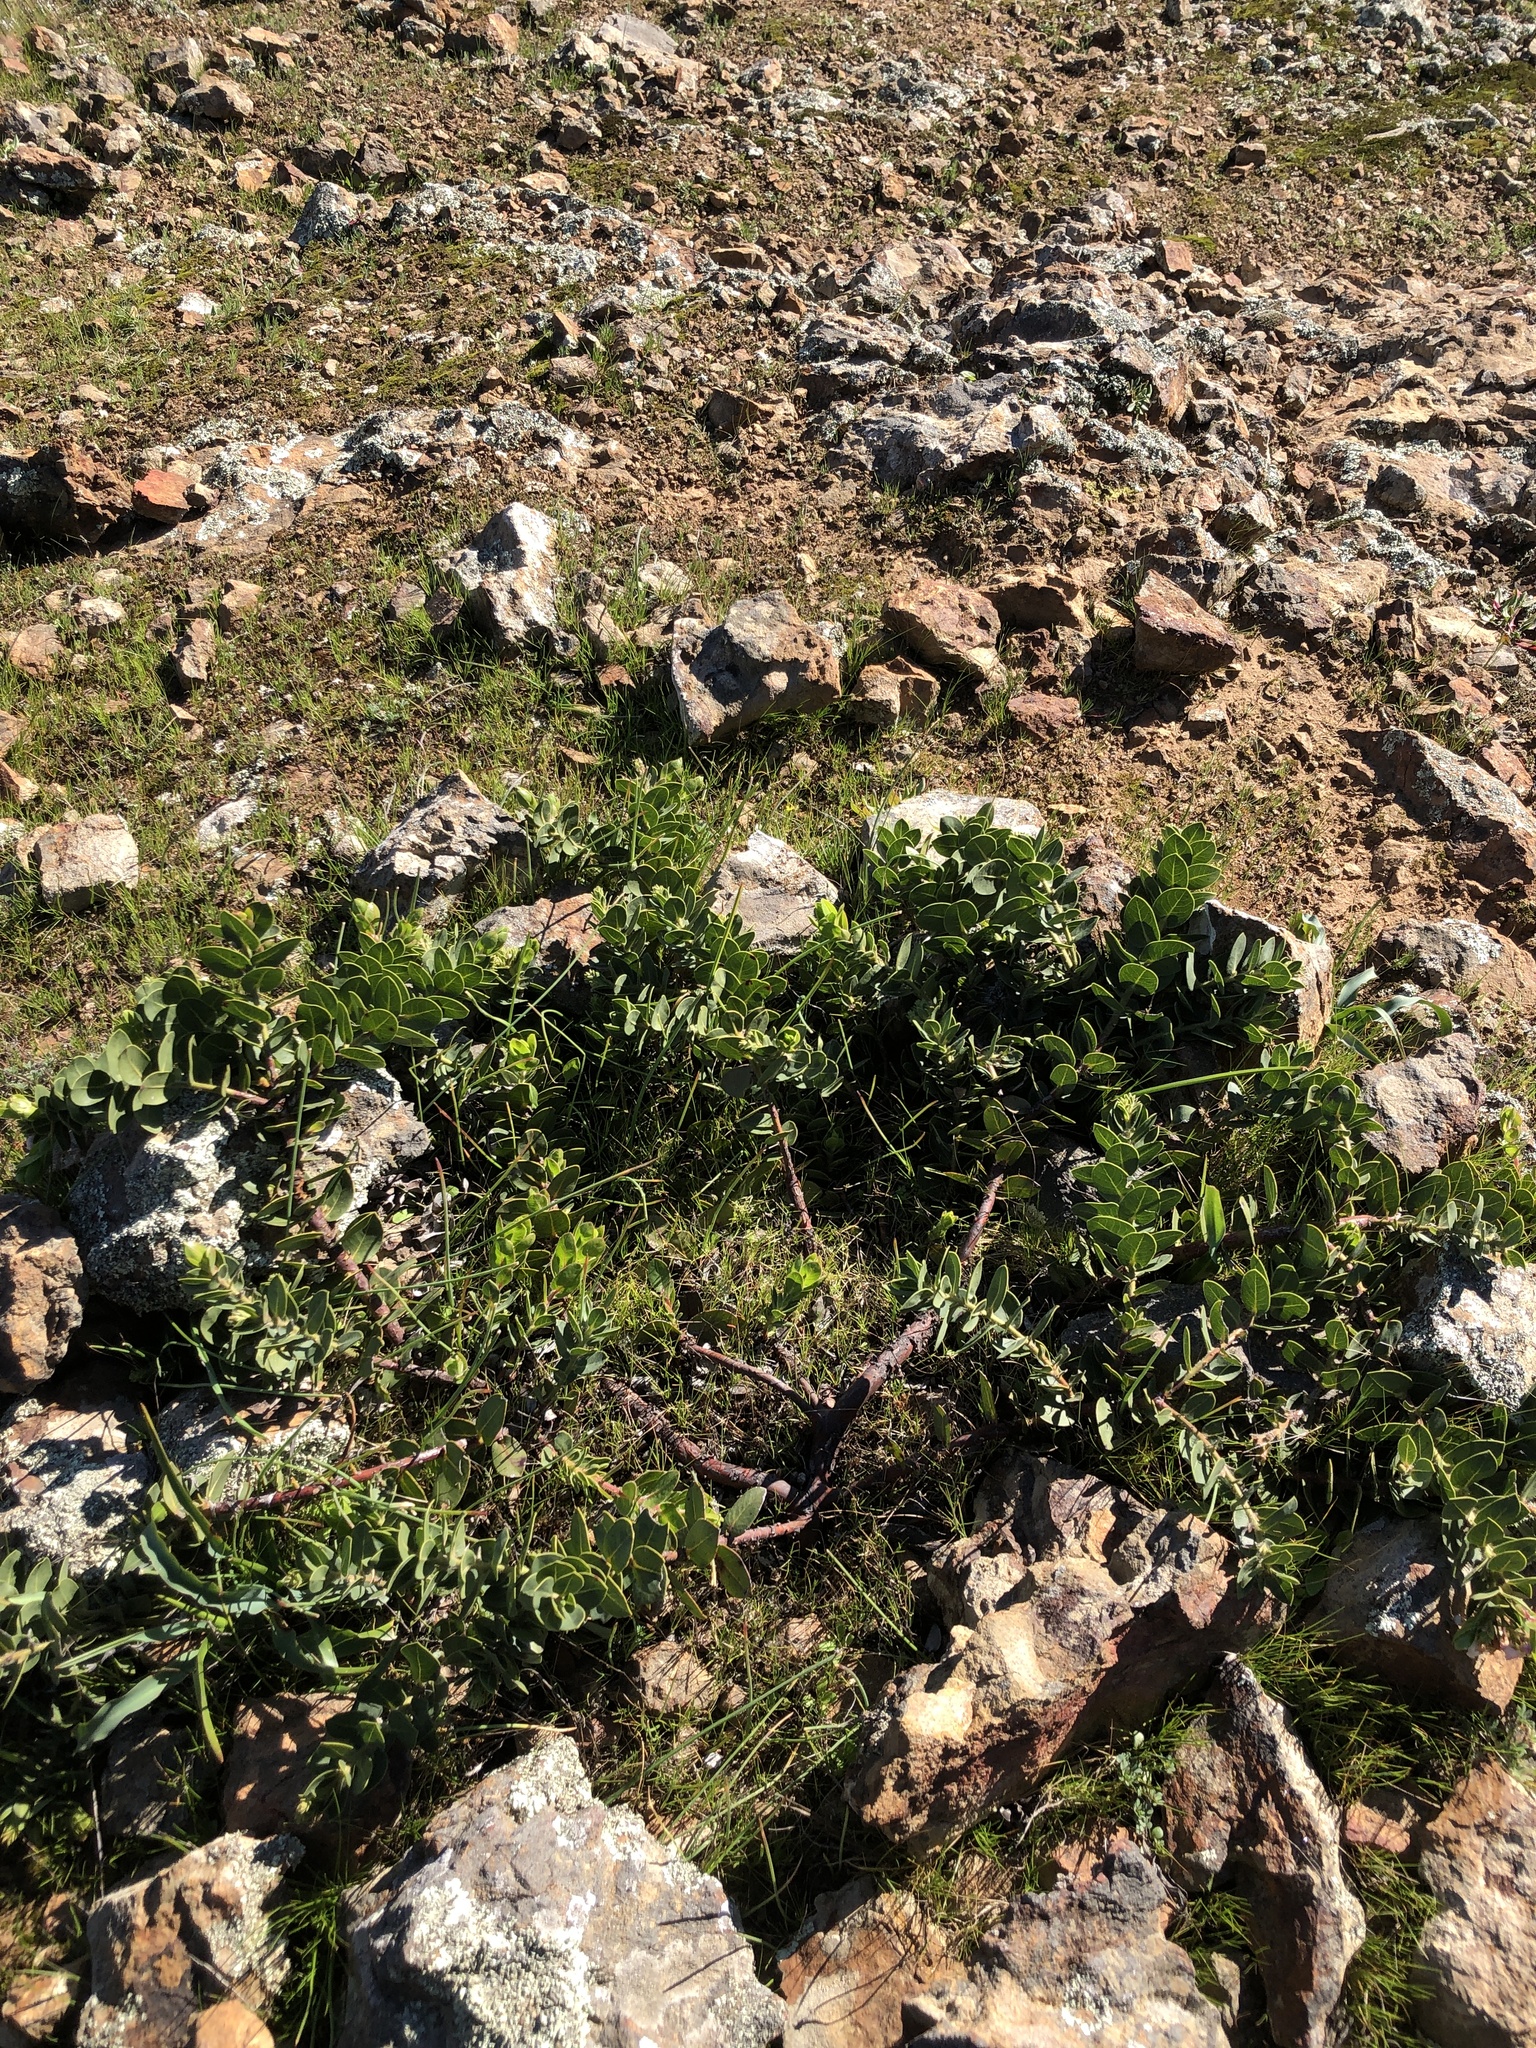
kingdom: Plantae
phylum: Tracheophyta
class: Magnoliopsida
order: Ericales
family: Ericaceae
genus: Arctostaphylos
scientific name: Arctostaphylos imbricata
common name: San bruno mountain manzanita
